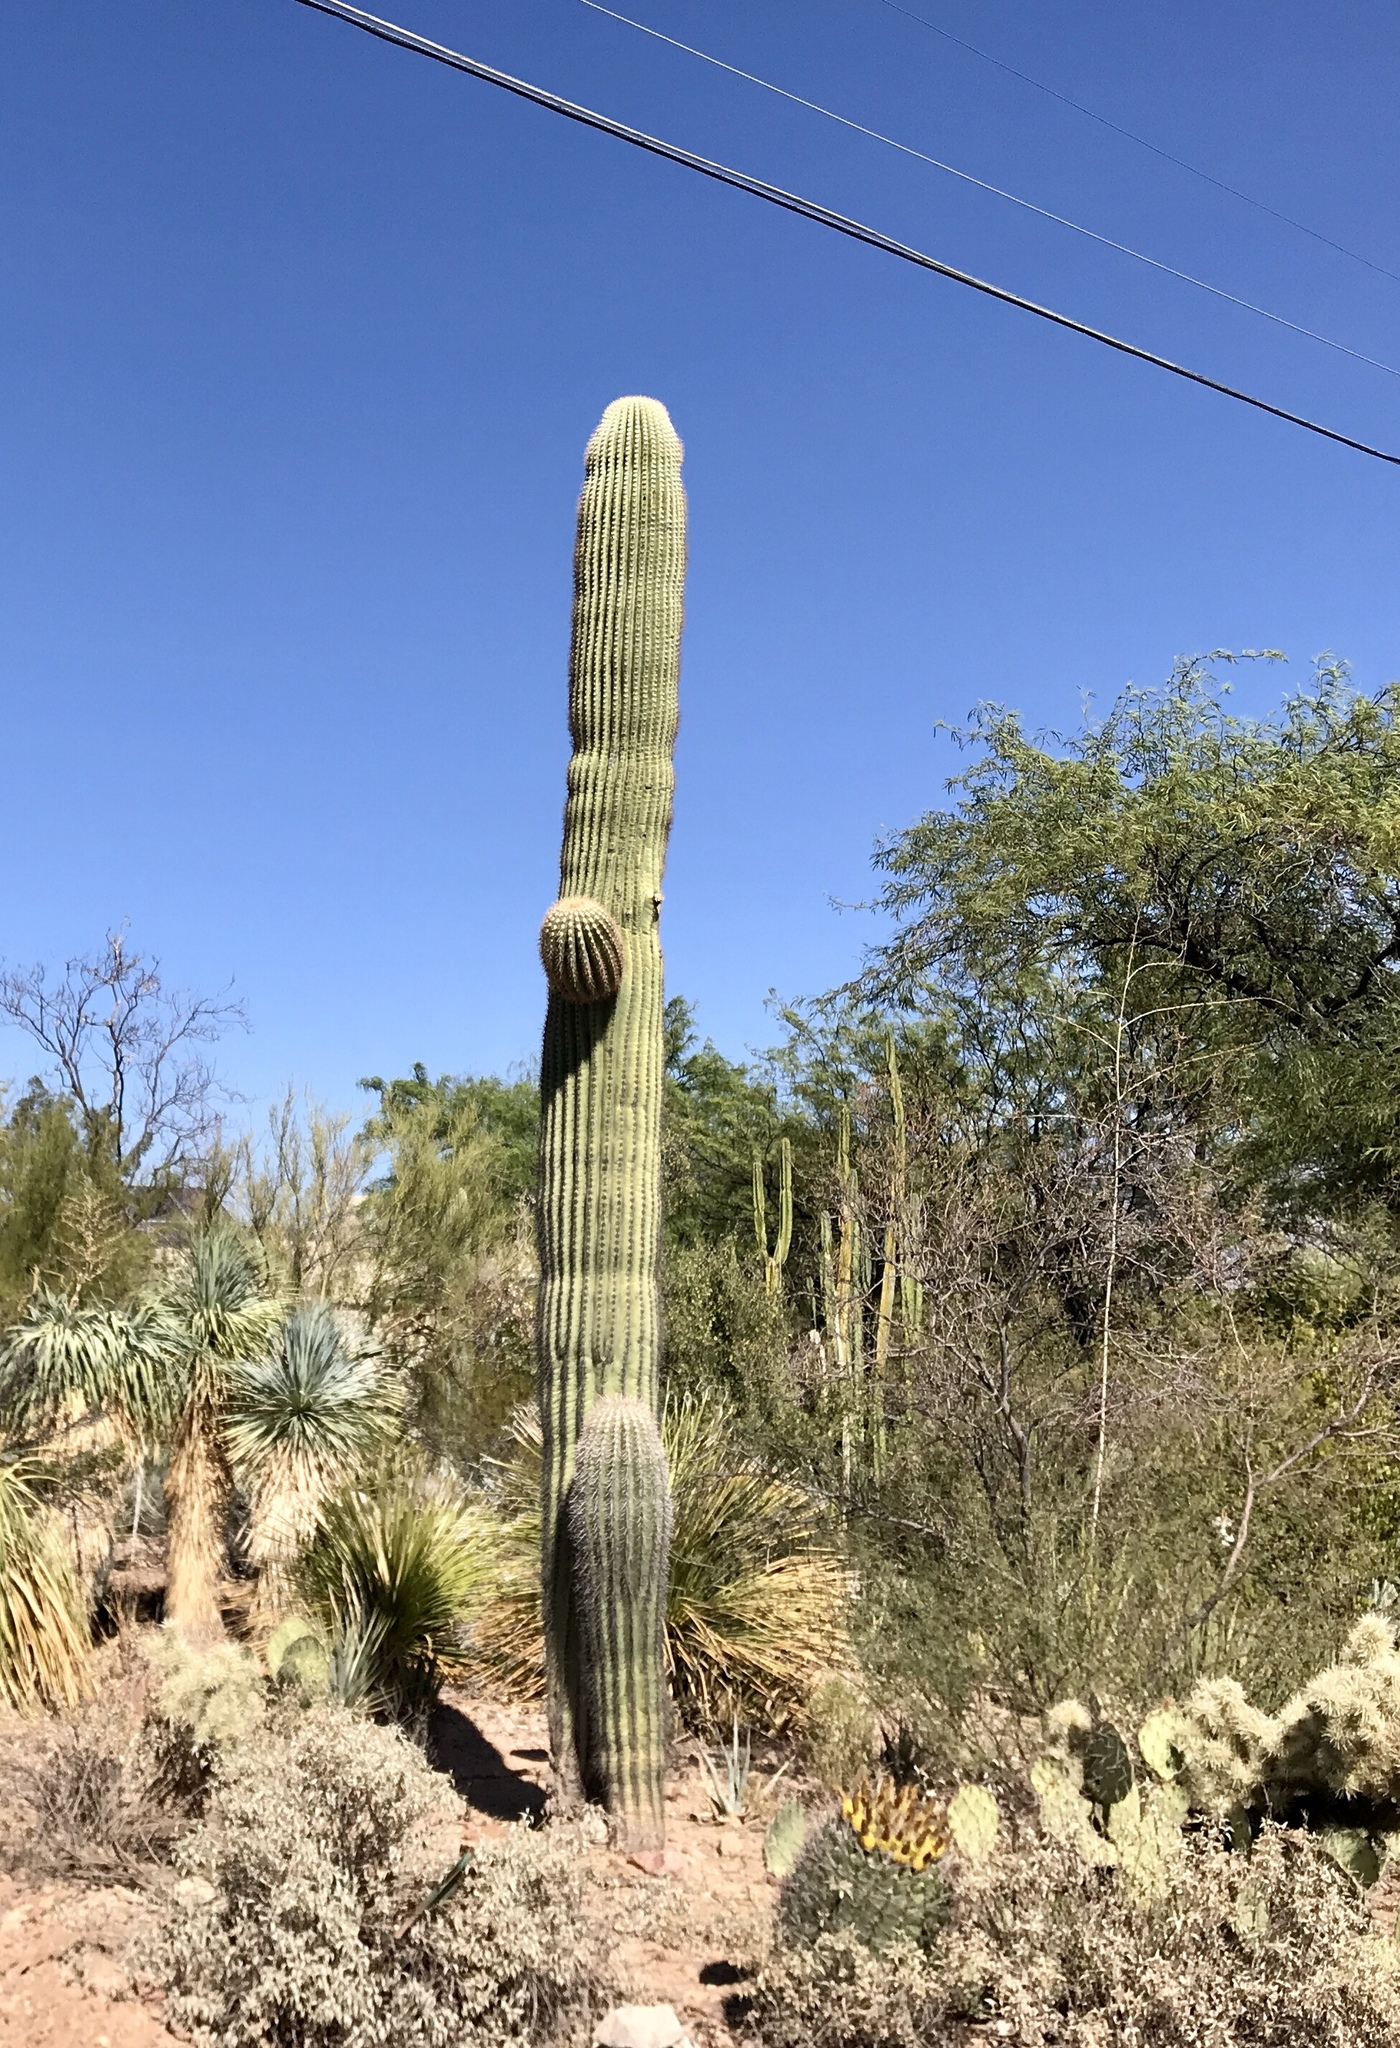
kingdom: Plantae
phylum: Tracheophyta
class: Magnoliopsida
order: Caryophyllales
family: Cactaceae
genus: Carnegiea
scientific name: Carnegiea gigantea
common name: Saguaro
